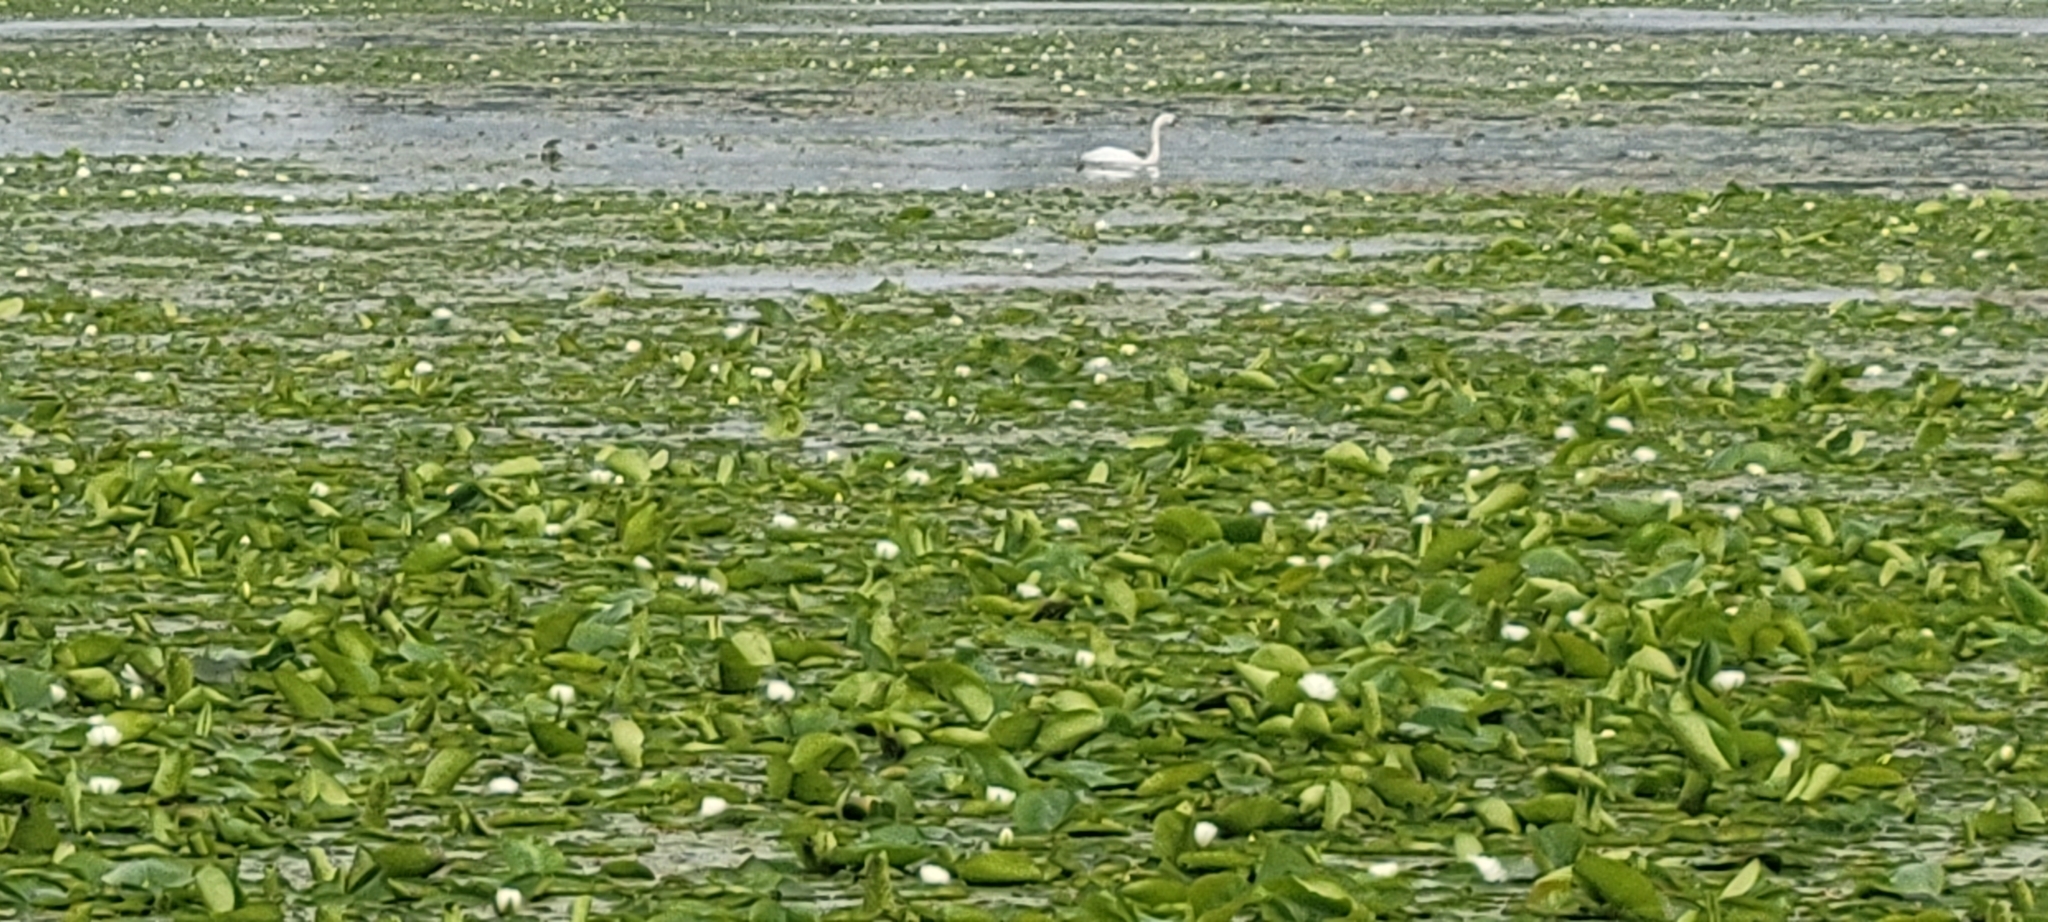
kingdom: Plantae
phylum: Tracheophyta
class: Magnoliopsida
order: Proteales
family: Nelumbonaceae
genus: Nelumbo
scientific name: Nelumbo lutea
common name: American lotus
